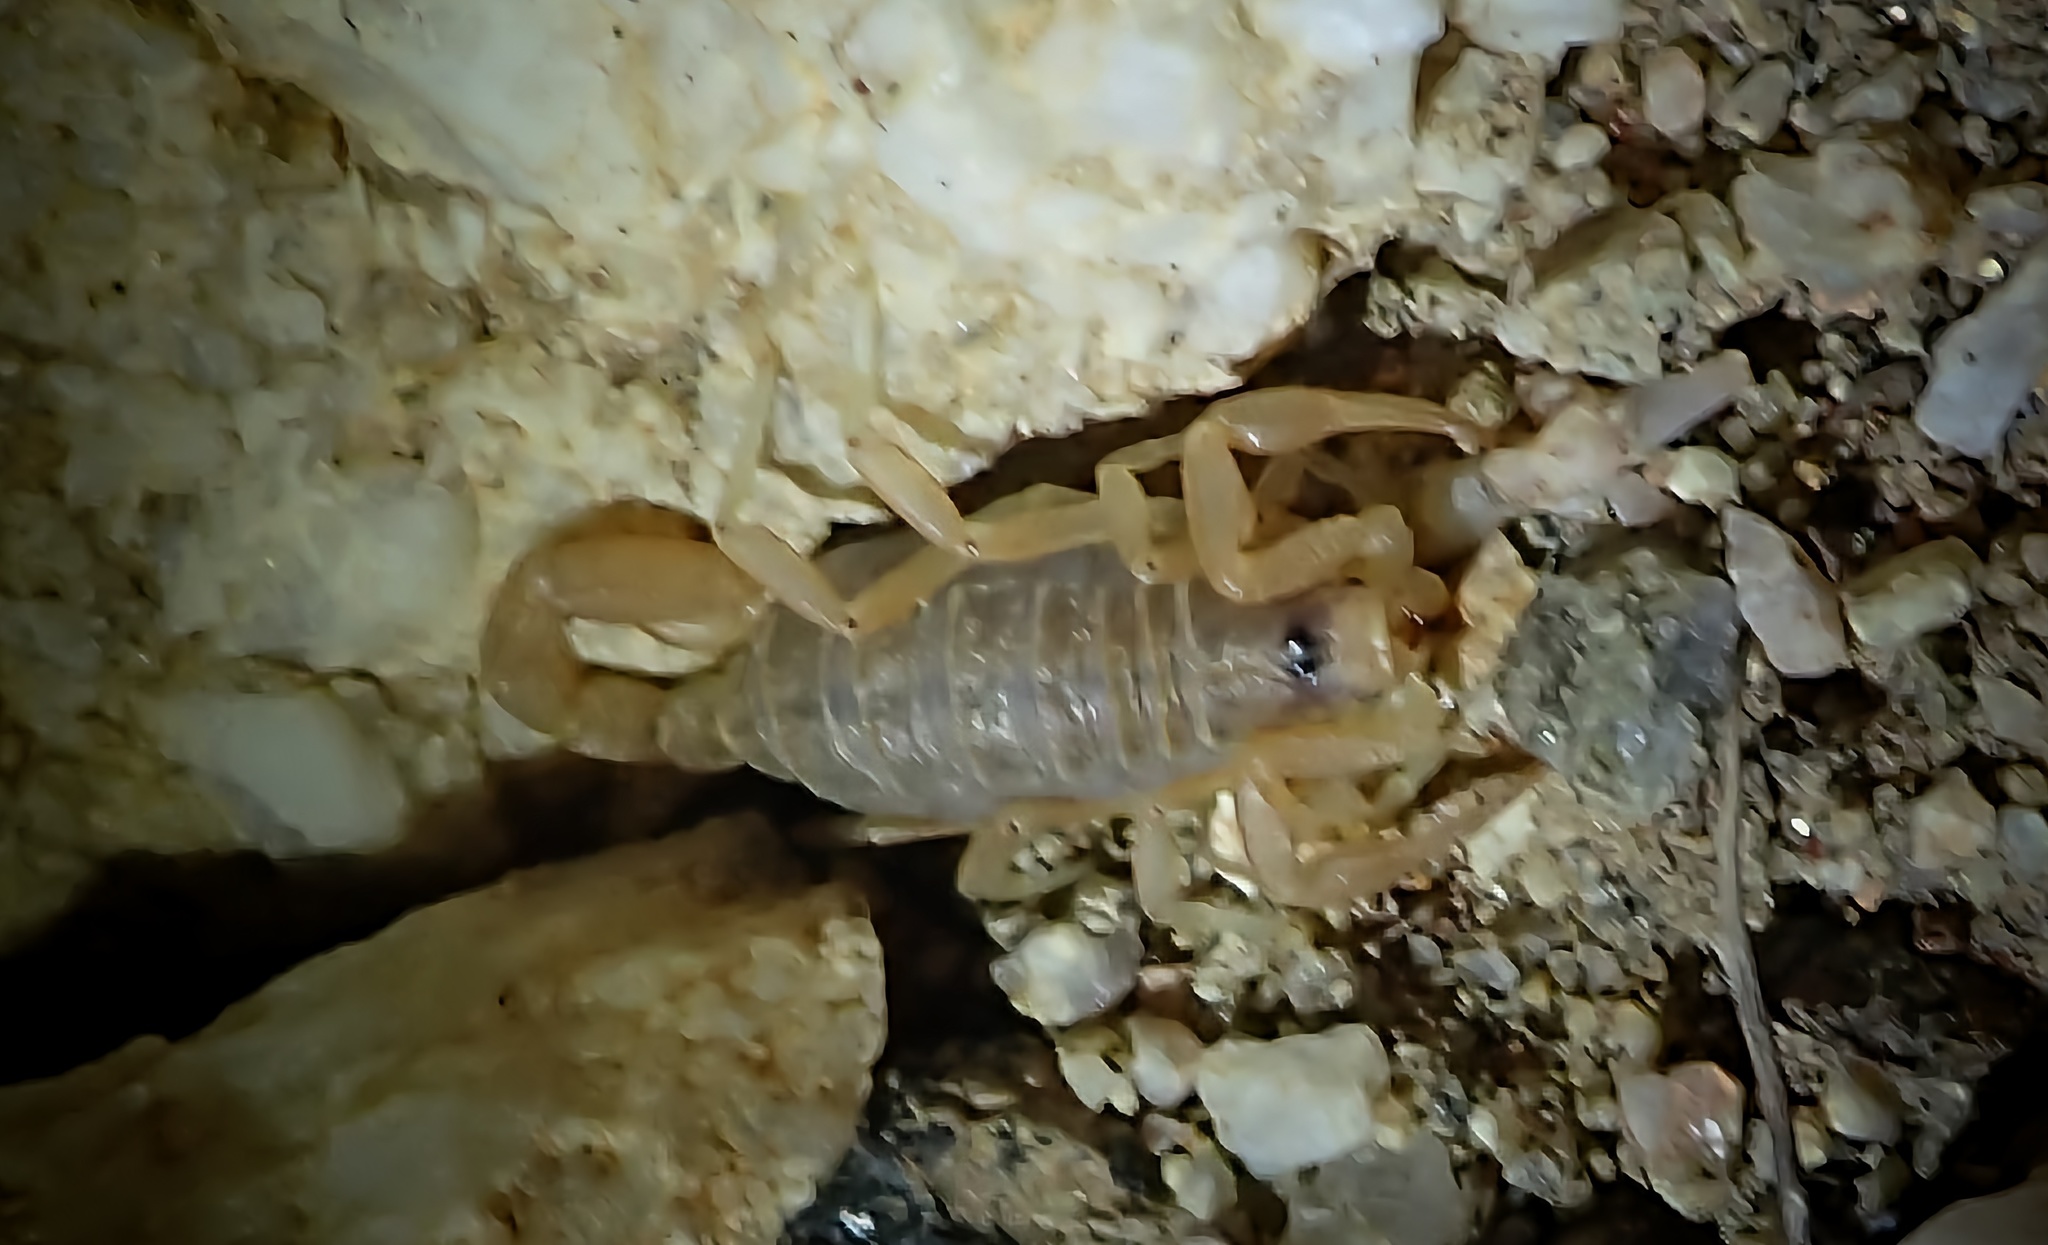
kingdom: Animalia
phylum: Arthropoda
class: Arachnida
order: Scorpiones
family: Vaejovidae
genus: Paruroctonus
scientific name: Paruroctonus becki
